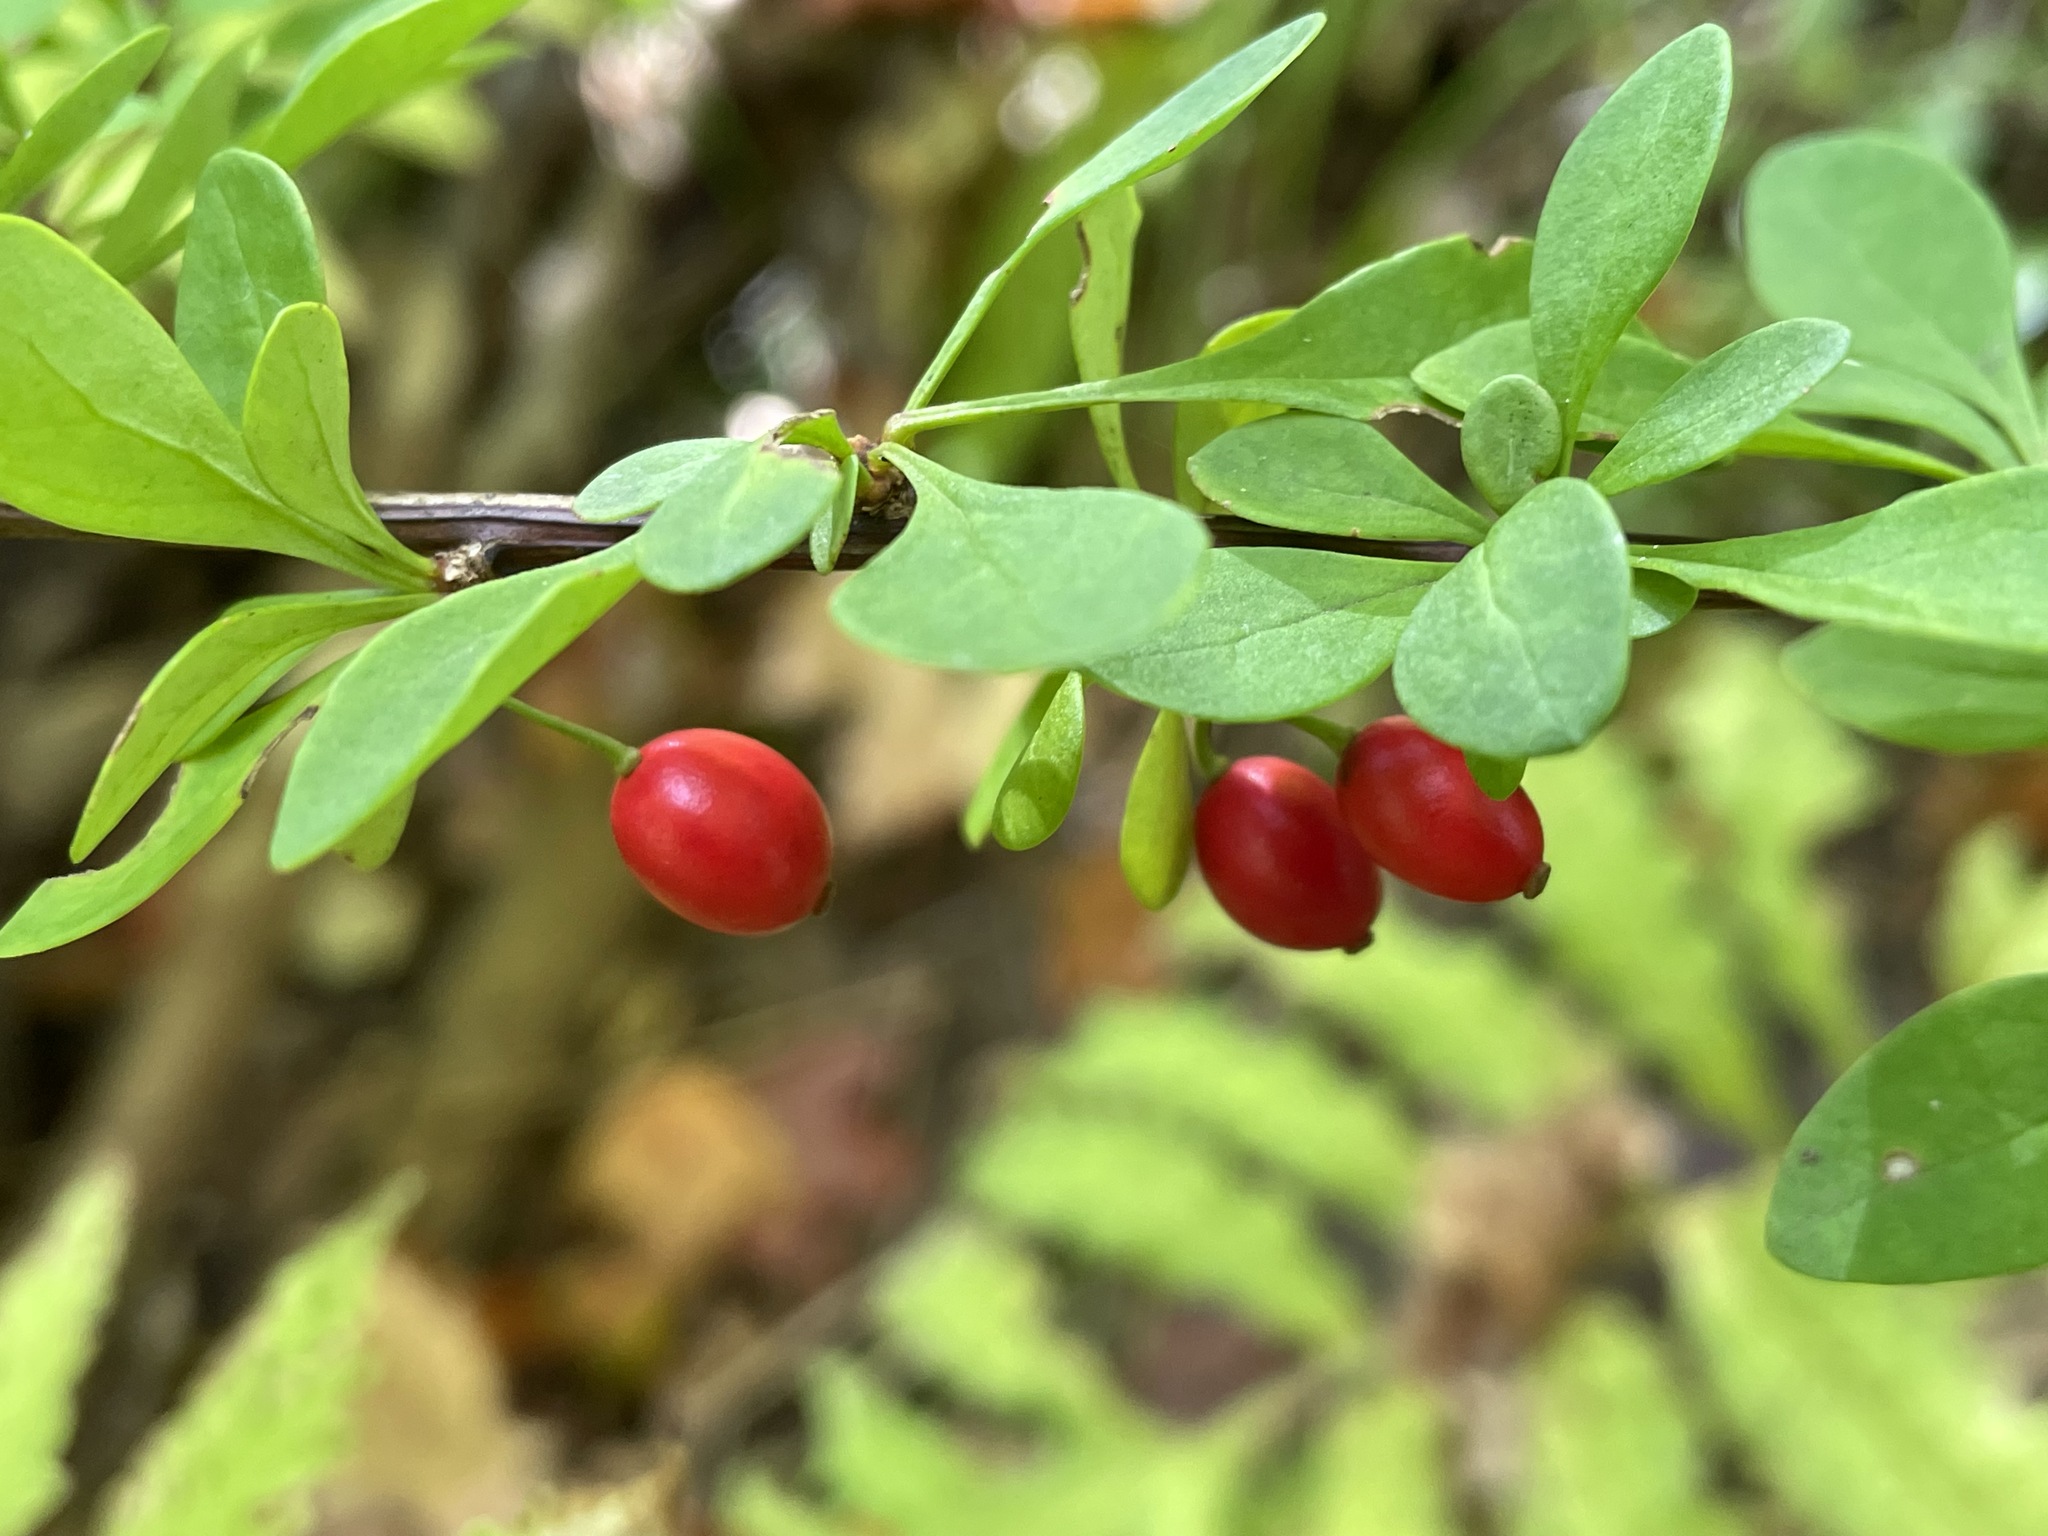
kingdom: Plantae
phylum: Tracheophyta
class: Magnoliopsida
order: Ranunculales
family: Berberidaceae
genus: Berberis
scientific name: Berberis thunbergii
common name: Japanese barberry
